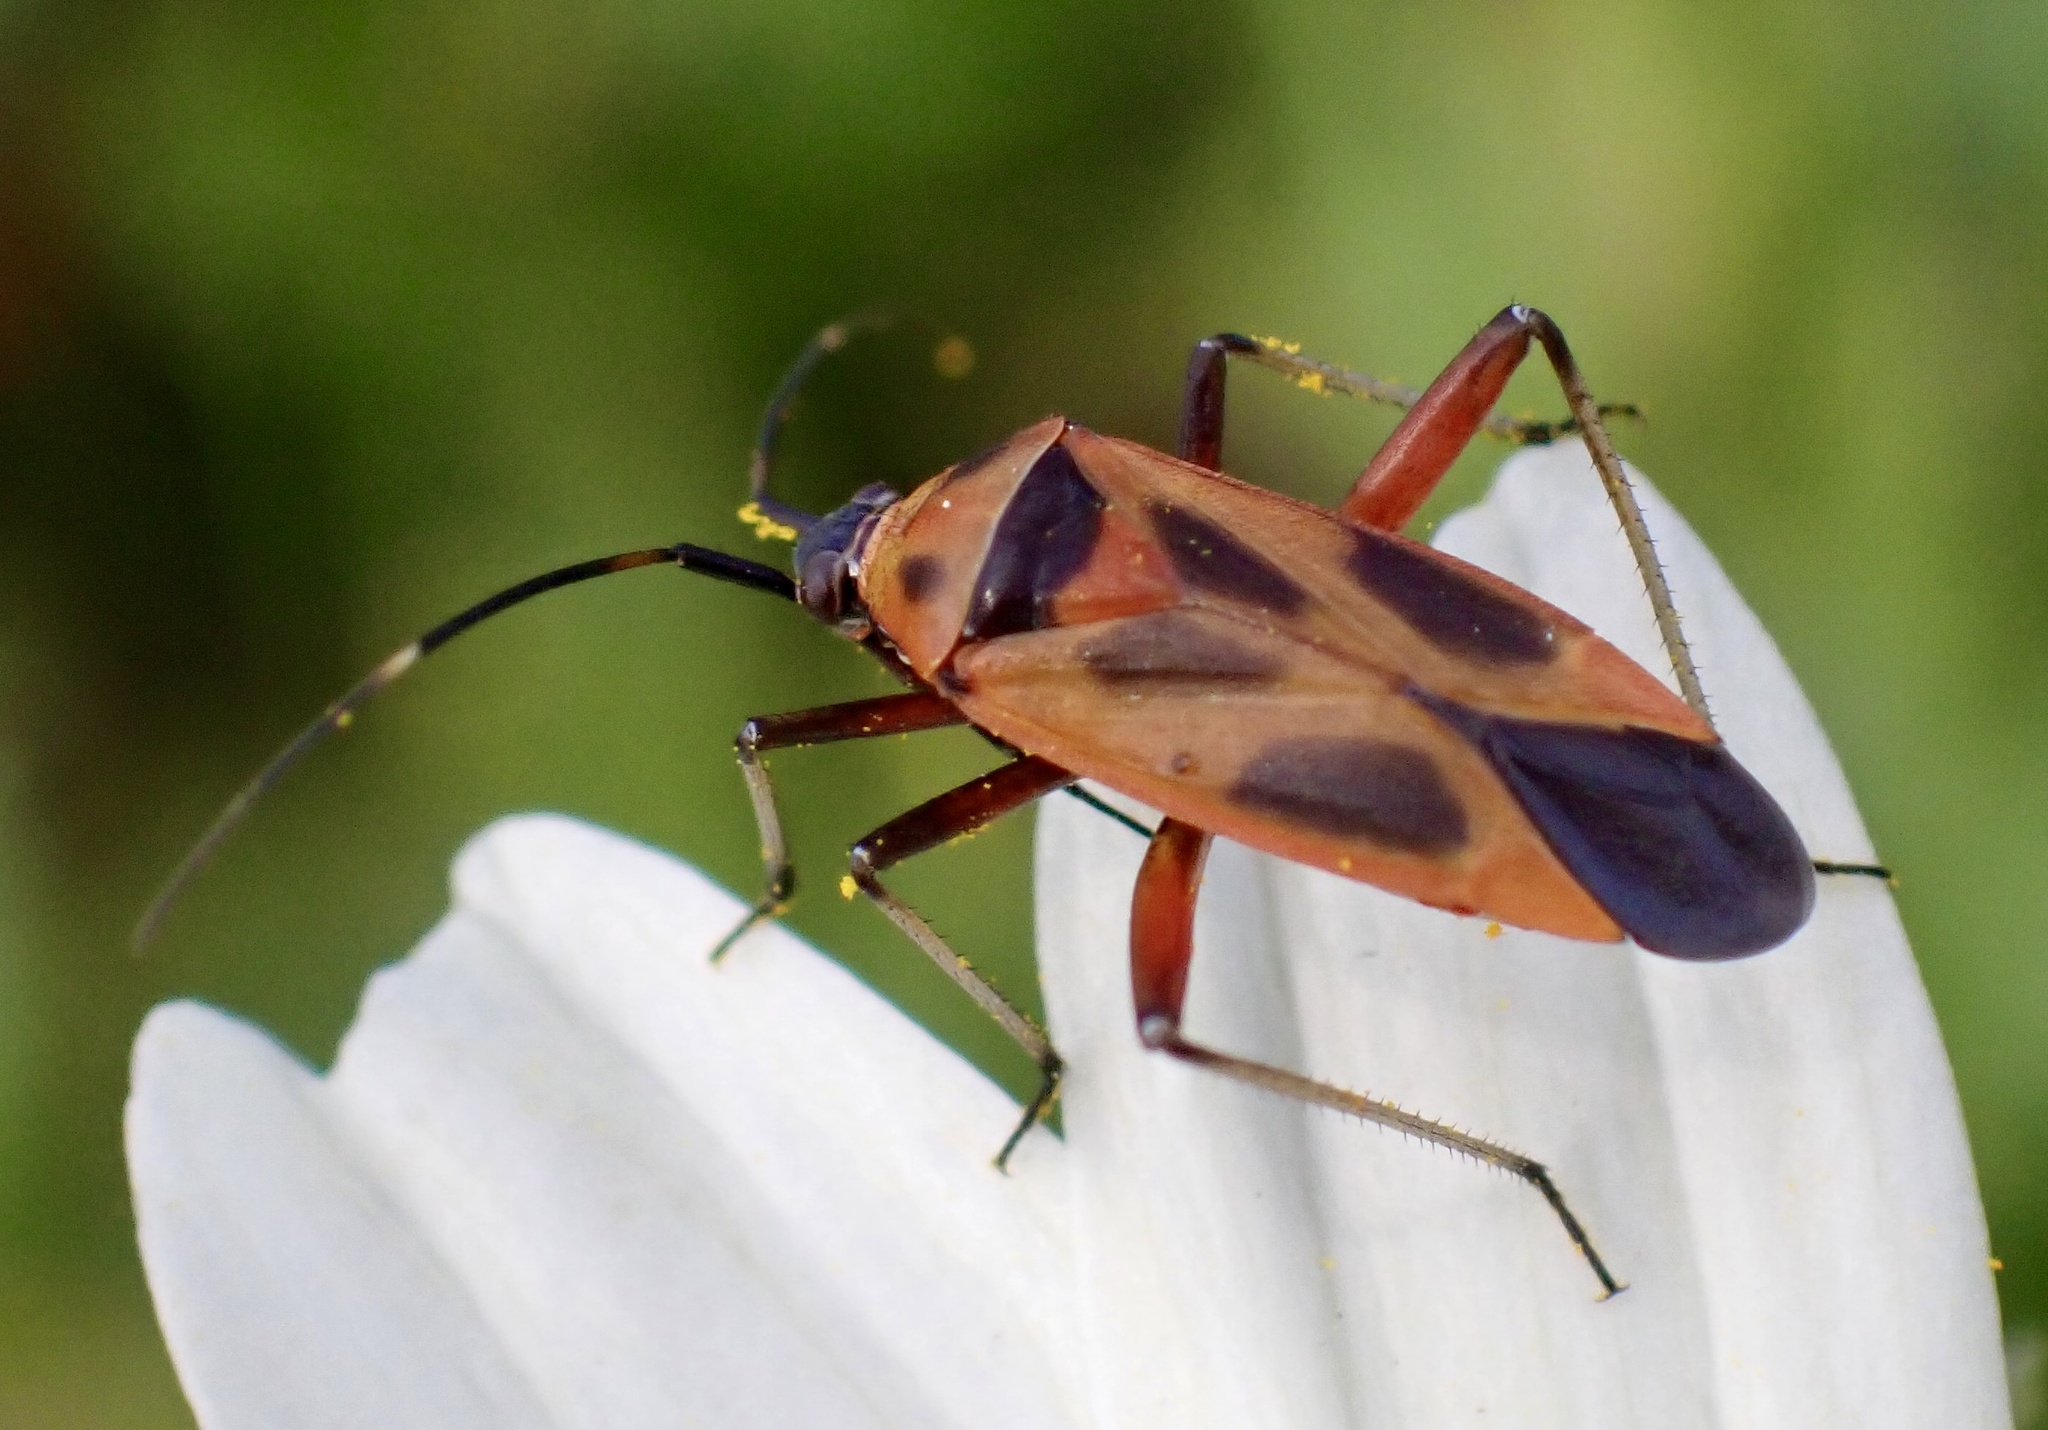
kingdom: Animalia
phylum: Arthropoda
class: Insecta
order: Hemiptera
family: Miridae
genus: Calocoris
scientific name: Calocoris nemoralis
